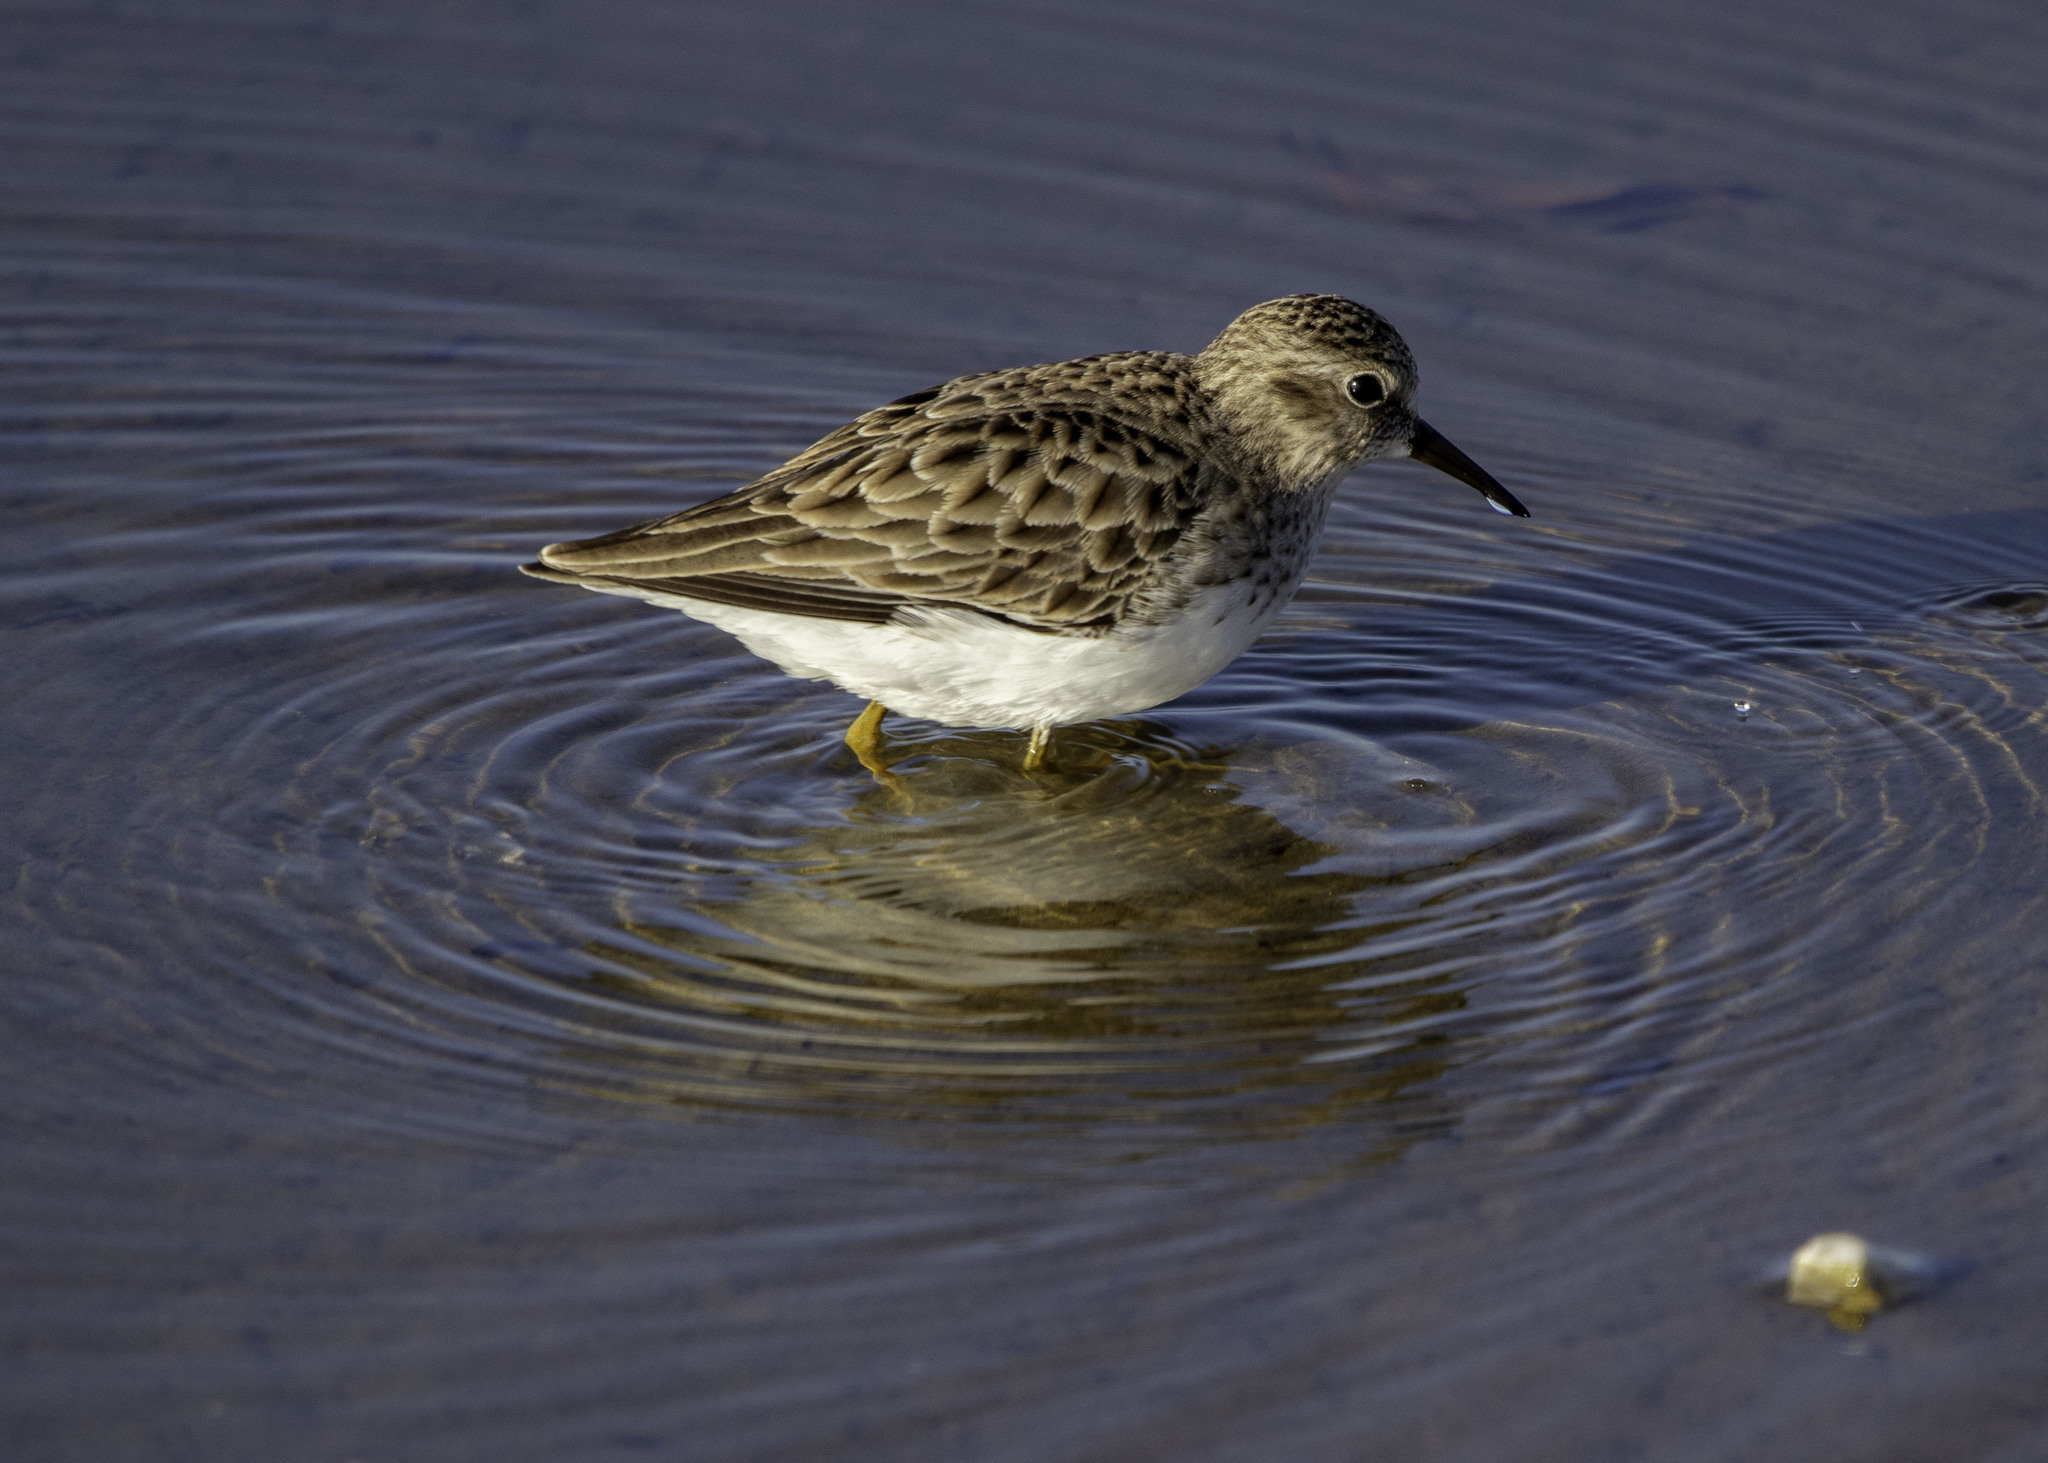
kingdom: Animalia
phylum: Chordata
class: Aves
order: Charadriiformes
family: Scolopacidae
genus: Calidris
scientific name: Calidris minutilla
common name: Least sandpiper
